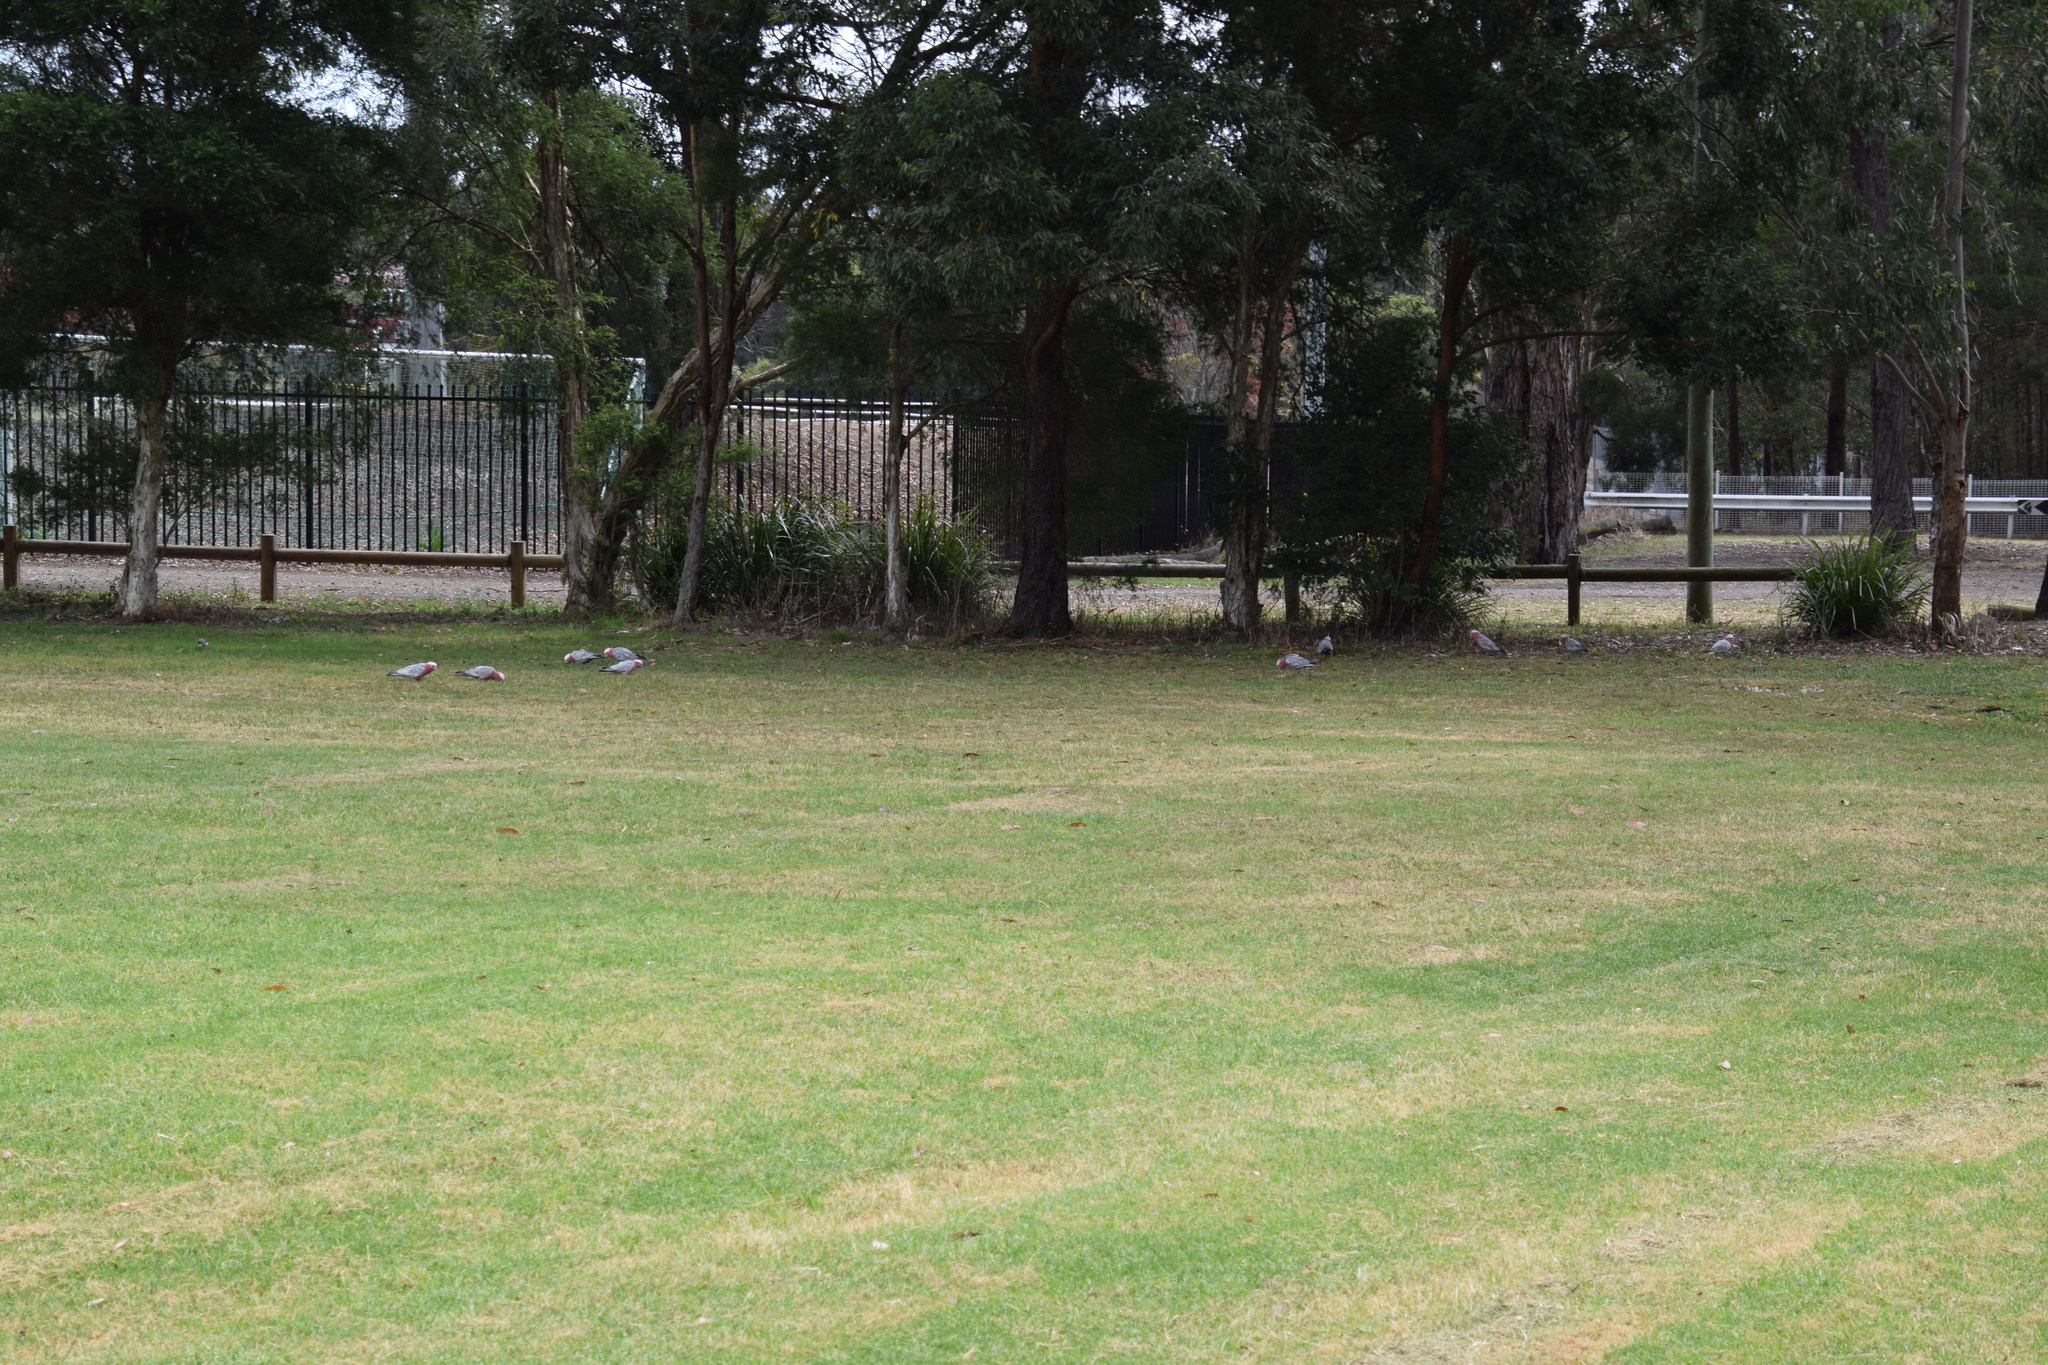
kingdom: Animalia
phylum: Chordata
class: Aves
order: Psittaciformes
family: Psittacidae
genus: Eolophus
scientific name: Eolophus roseicapilla
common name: Galah
